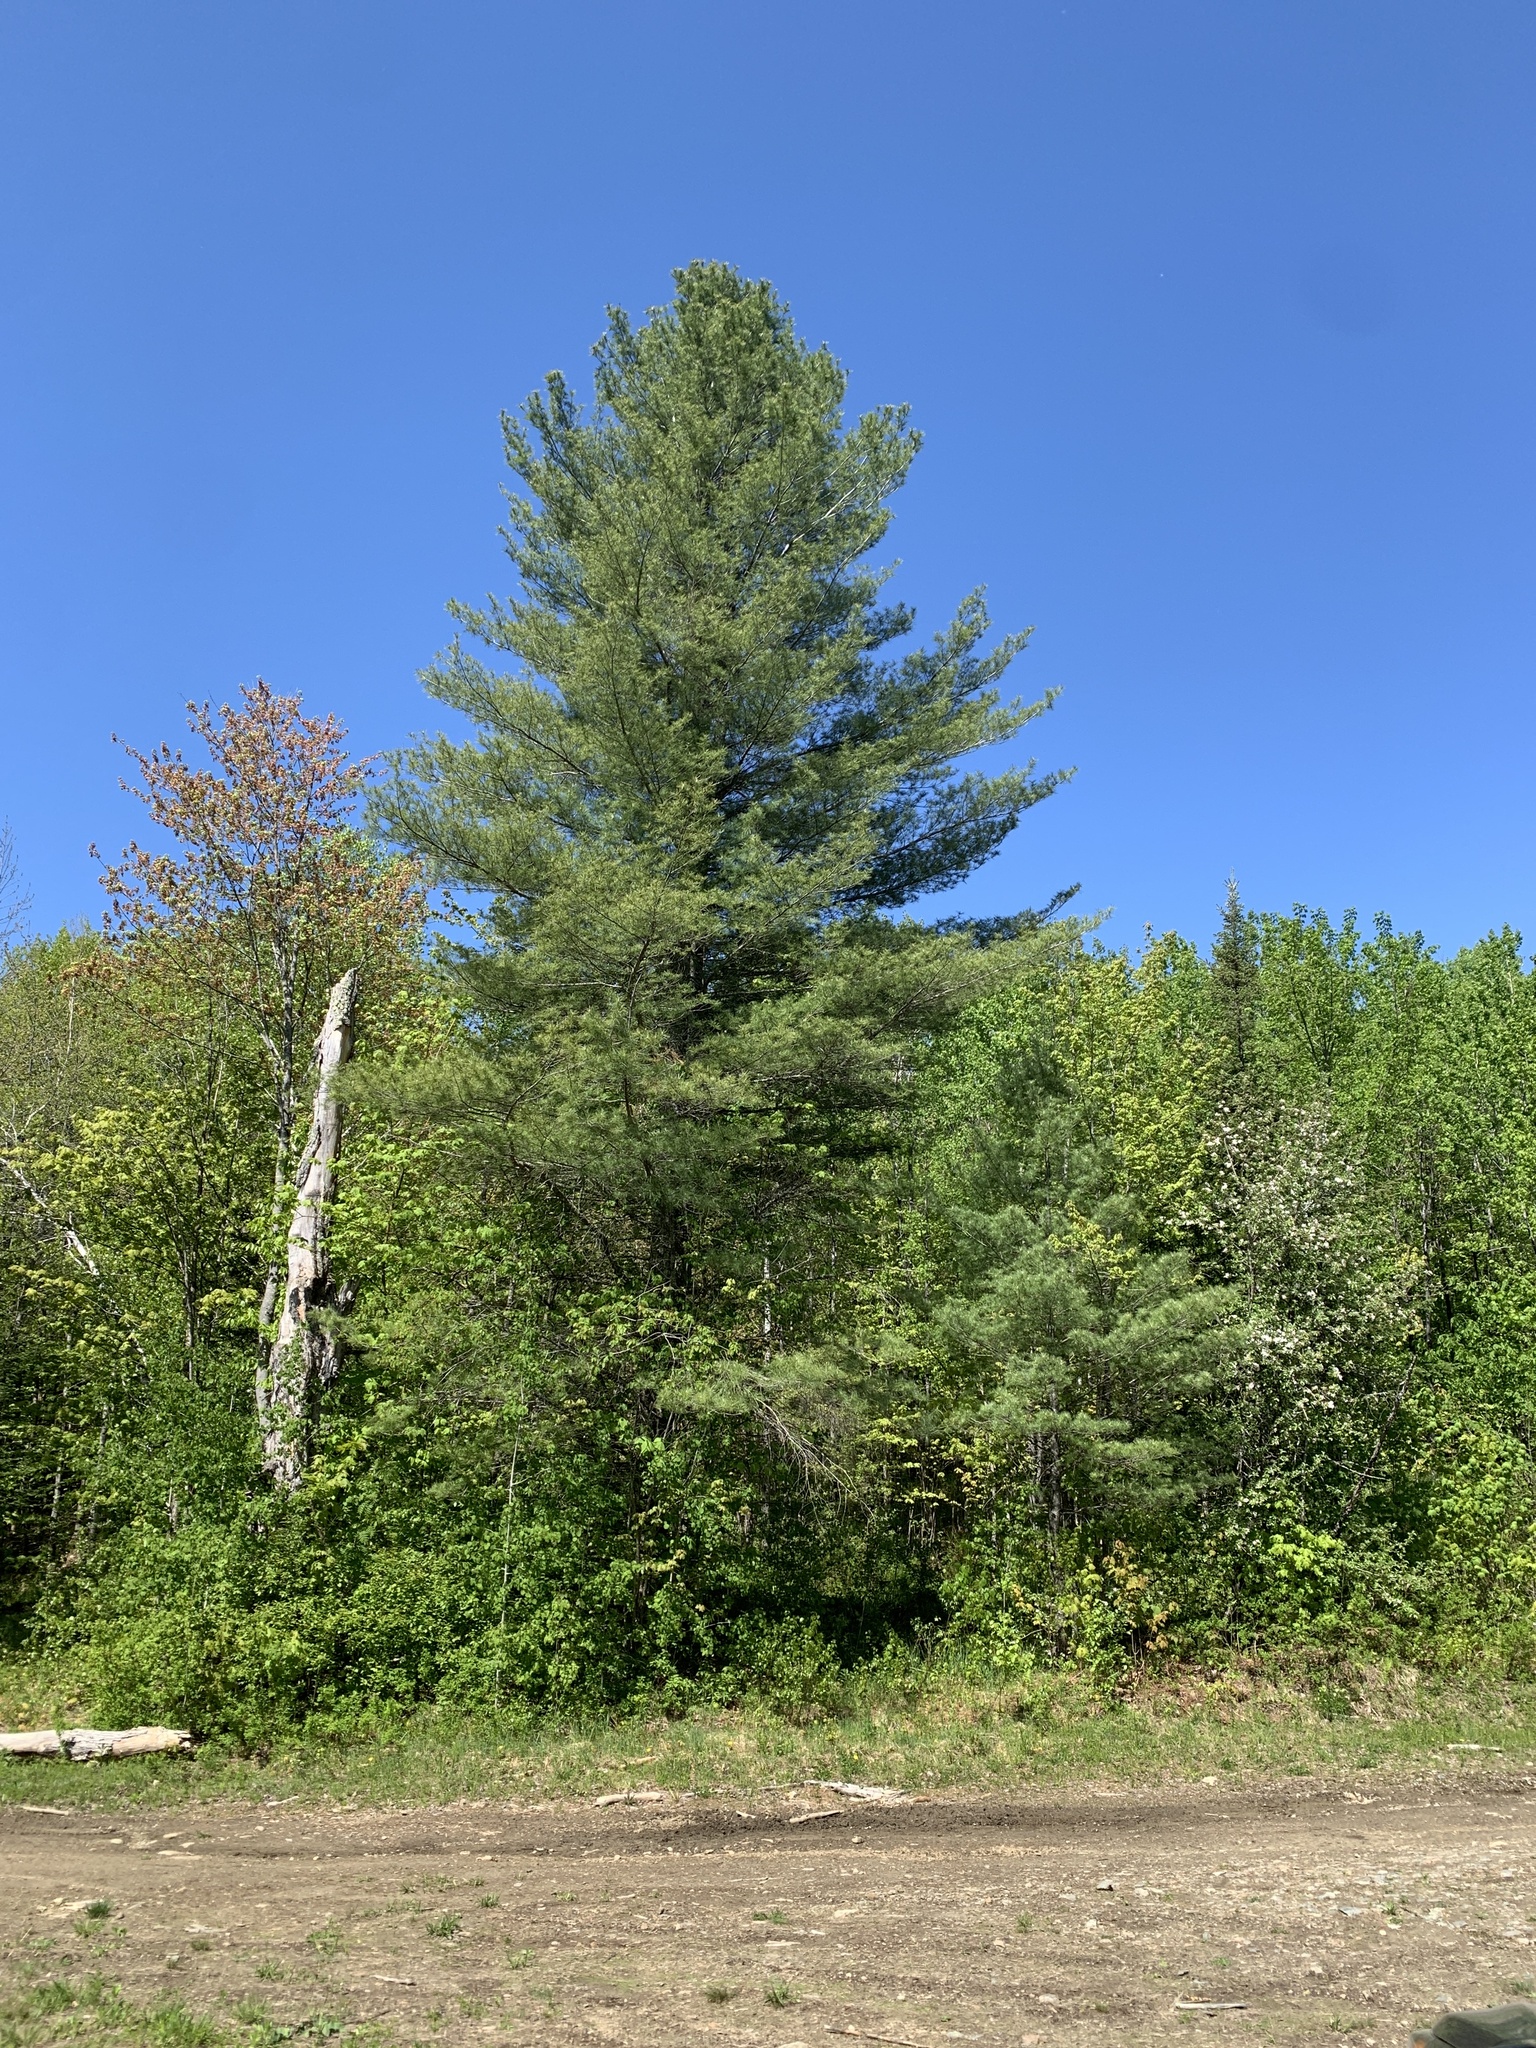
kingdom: Plantae
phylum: Tracheophyta
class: Pinopsida
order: Pinales
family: Pinaceae
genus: Pinus
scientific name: Pinus strobus
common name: Weymouth pine
